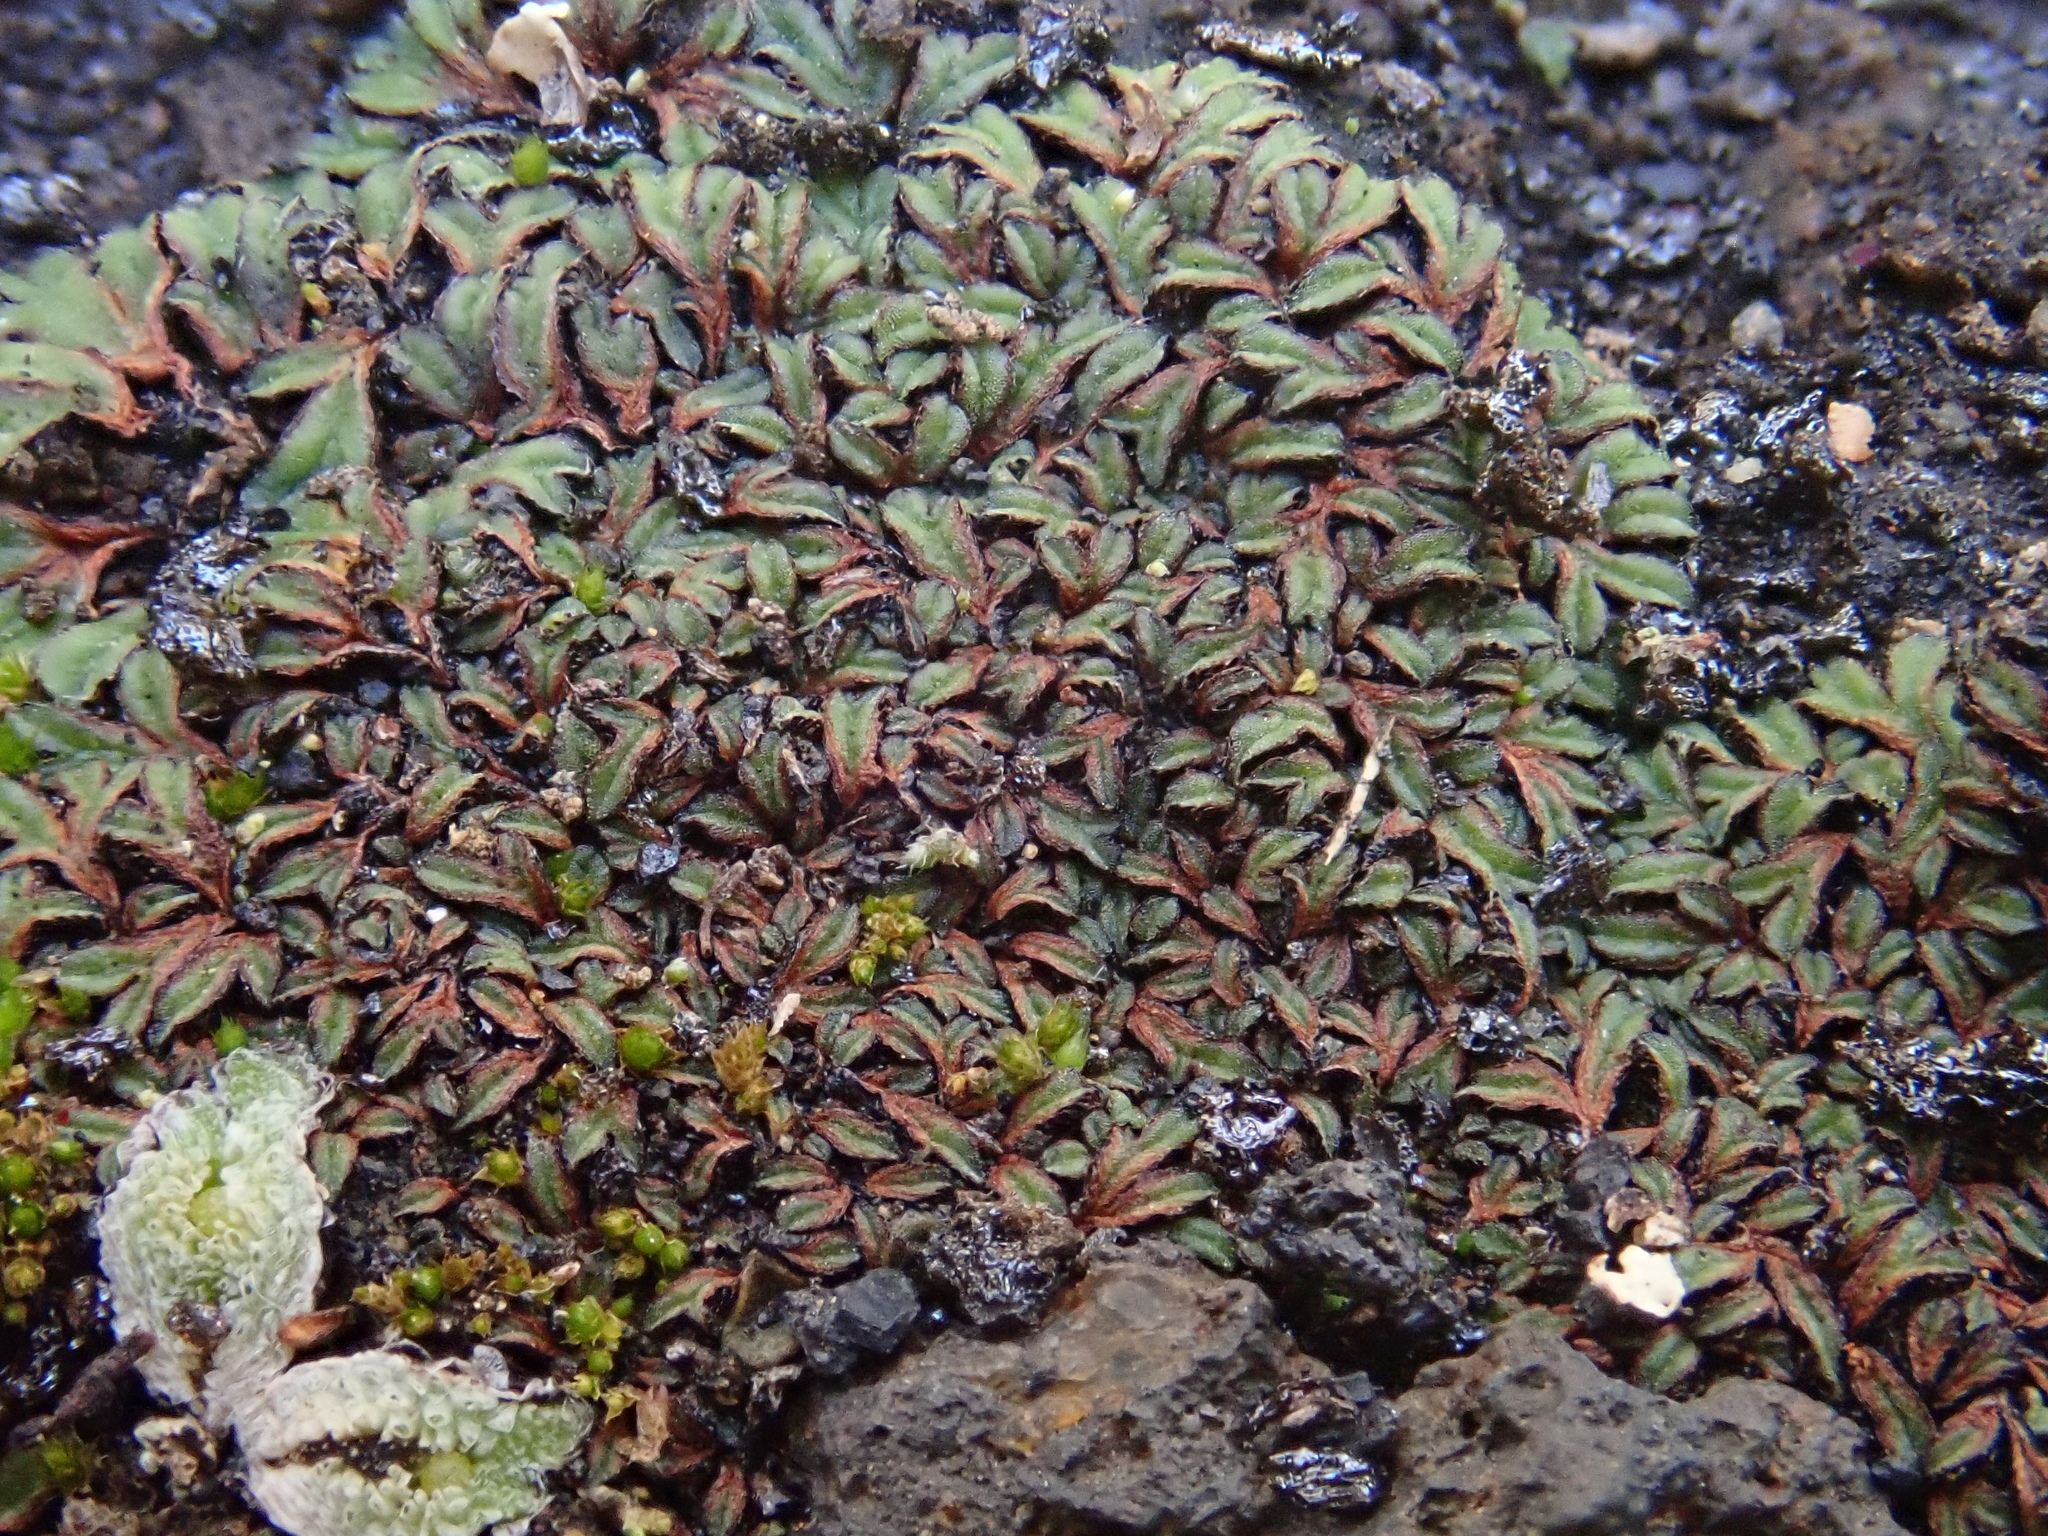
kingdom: Plantae
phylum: Marchantiophyta
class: Marchantiopsida
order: Marchantiales
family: Ricciaceae
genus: Riccia
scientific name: Riccia nigrella
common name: Black crystalwort
